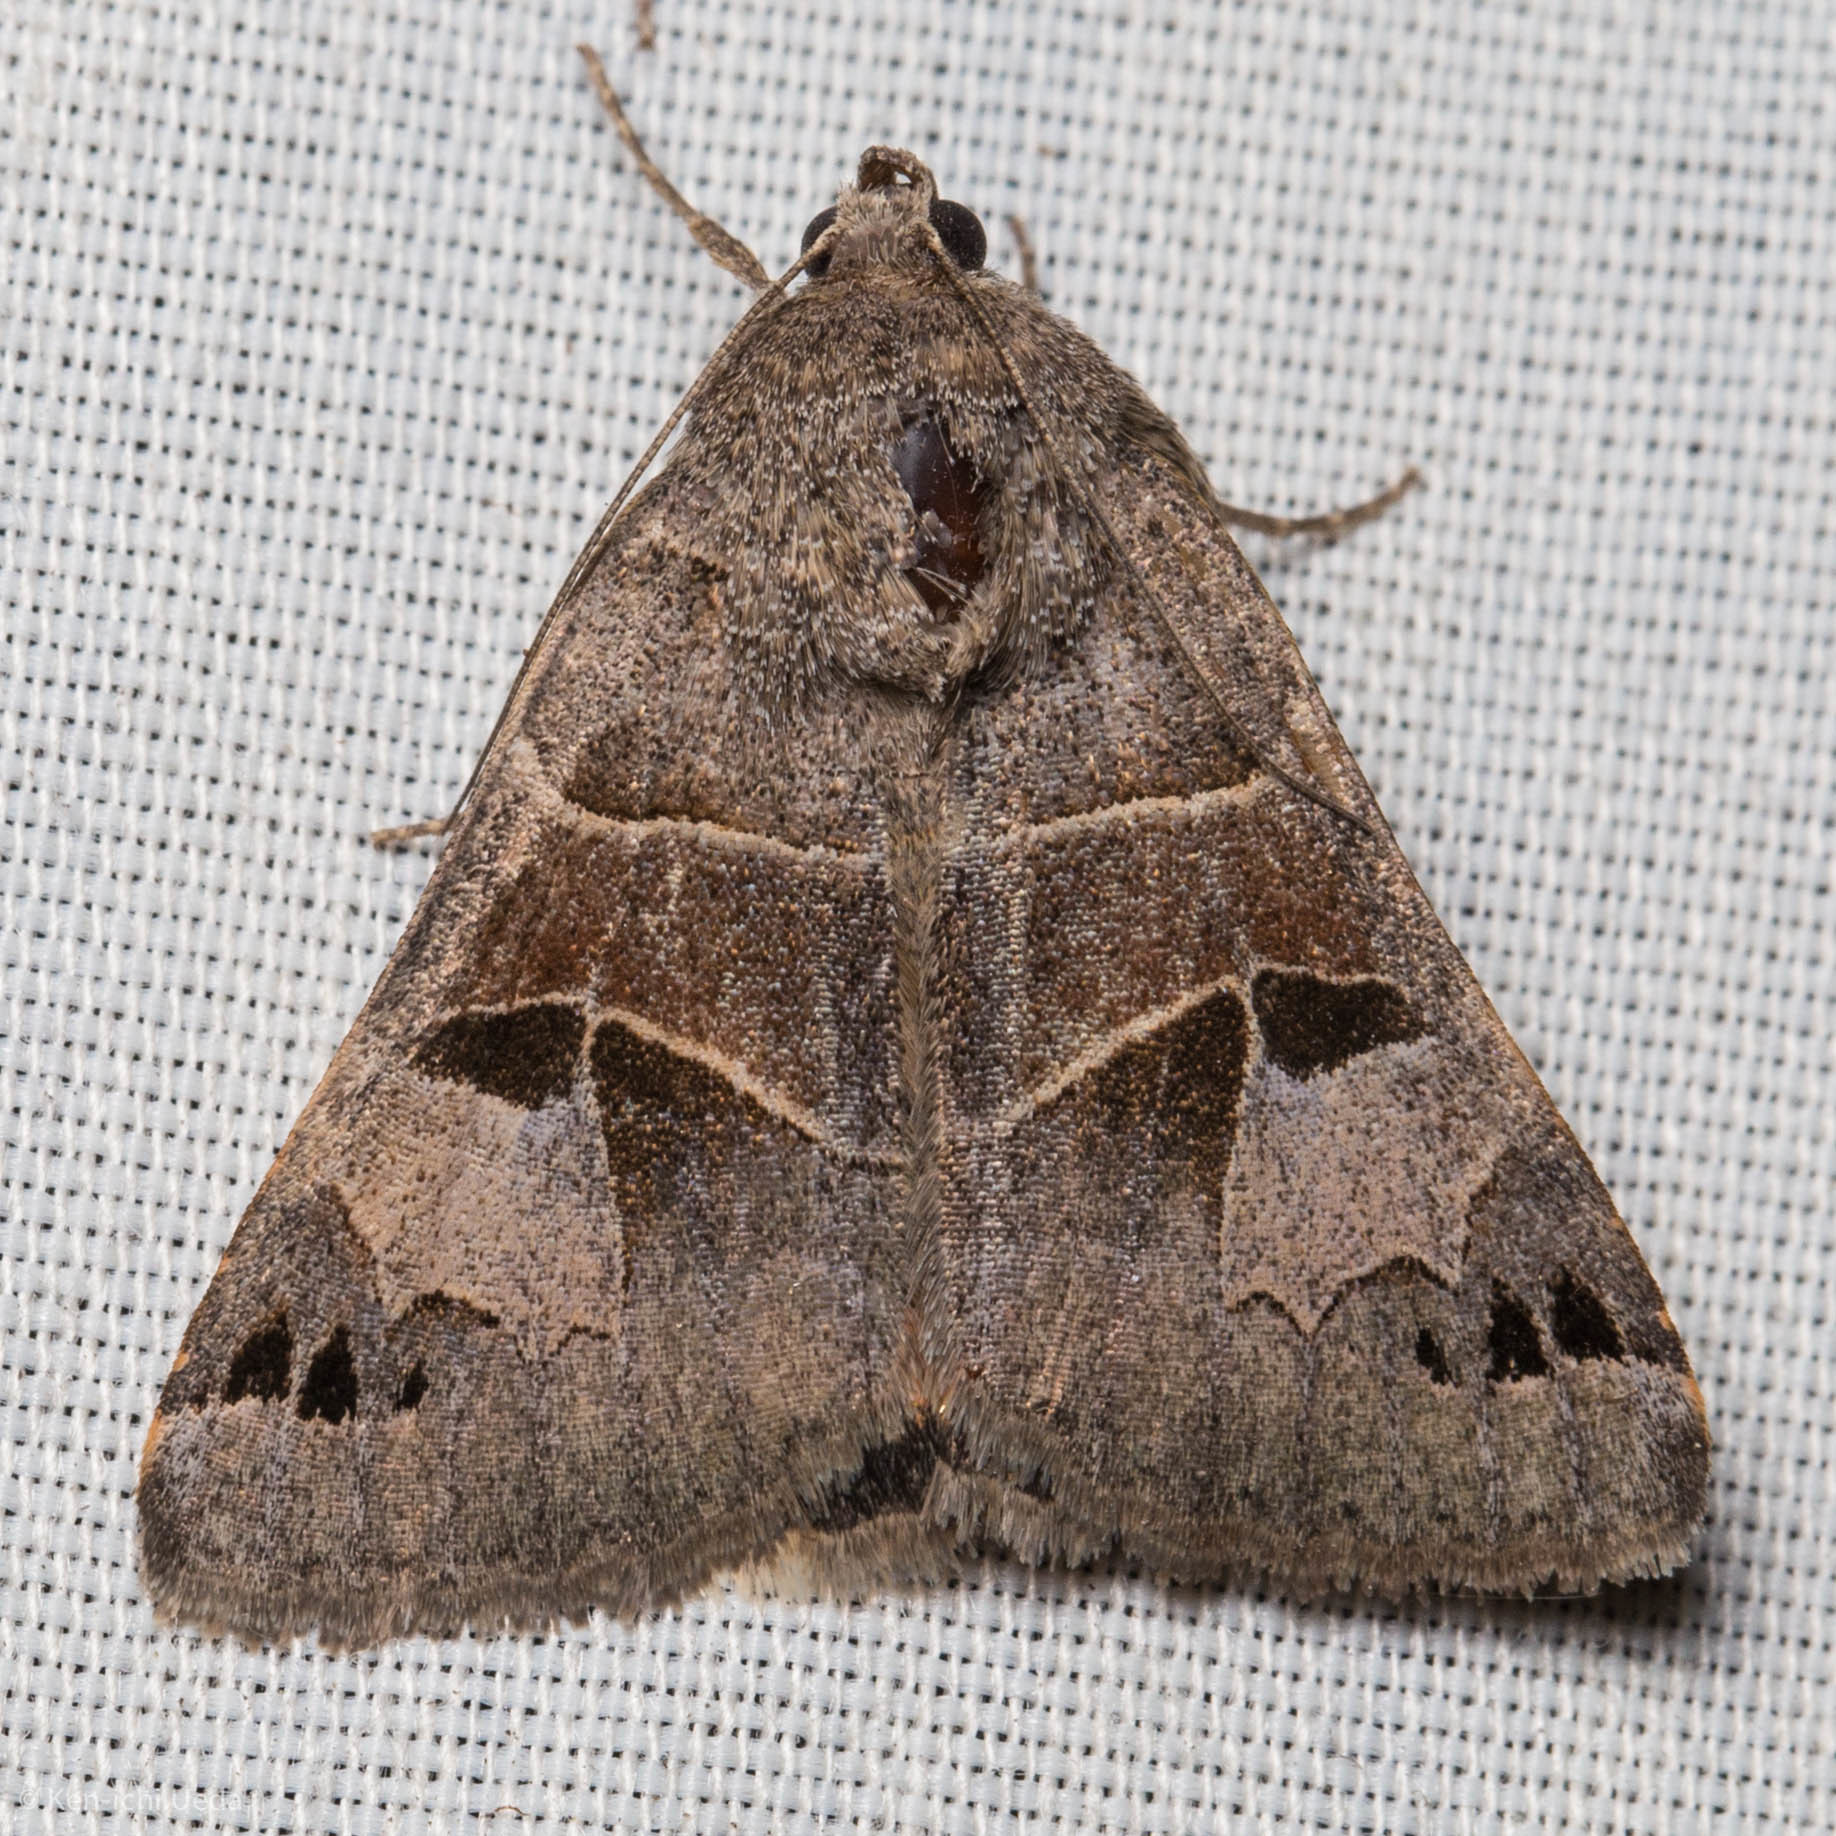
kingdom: Animalia
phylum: Arthropoda
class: Insecta
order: Lepidoptera
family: Erebidae
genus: Drasteria
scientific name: Drasteria edwardsii
